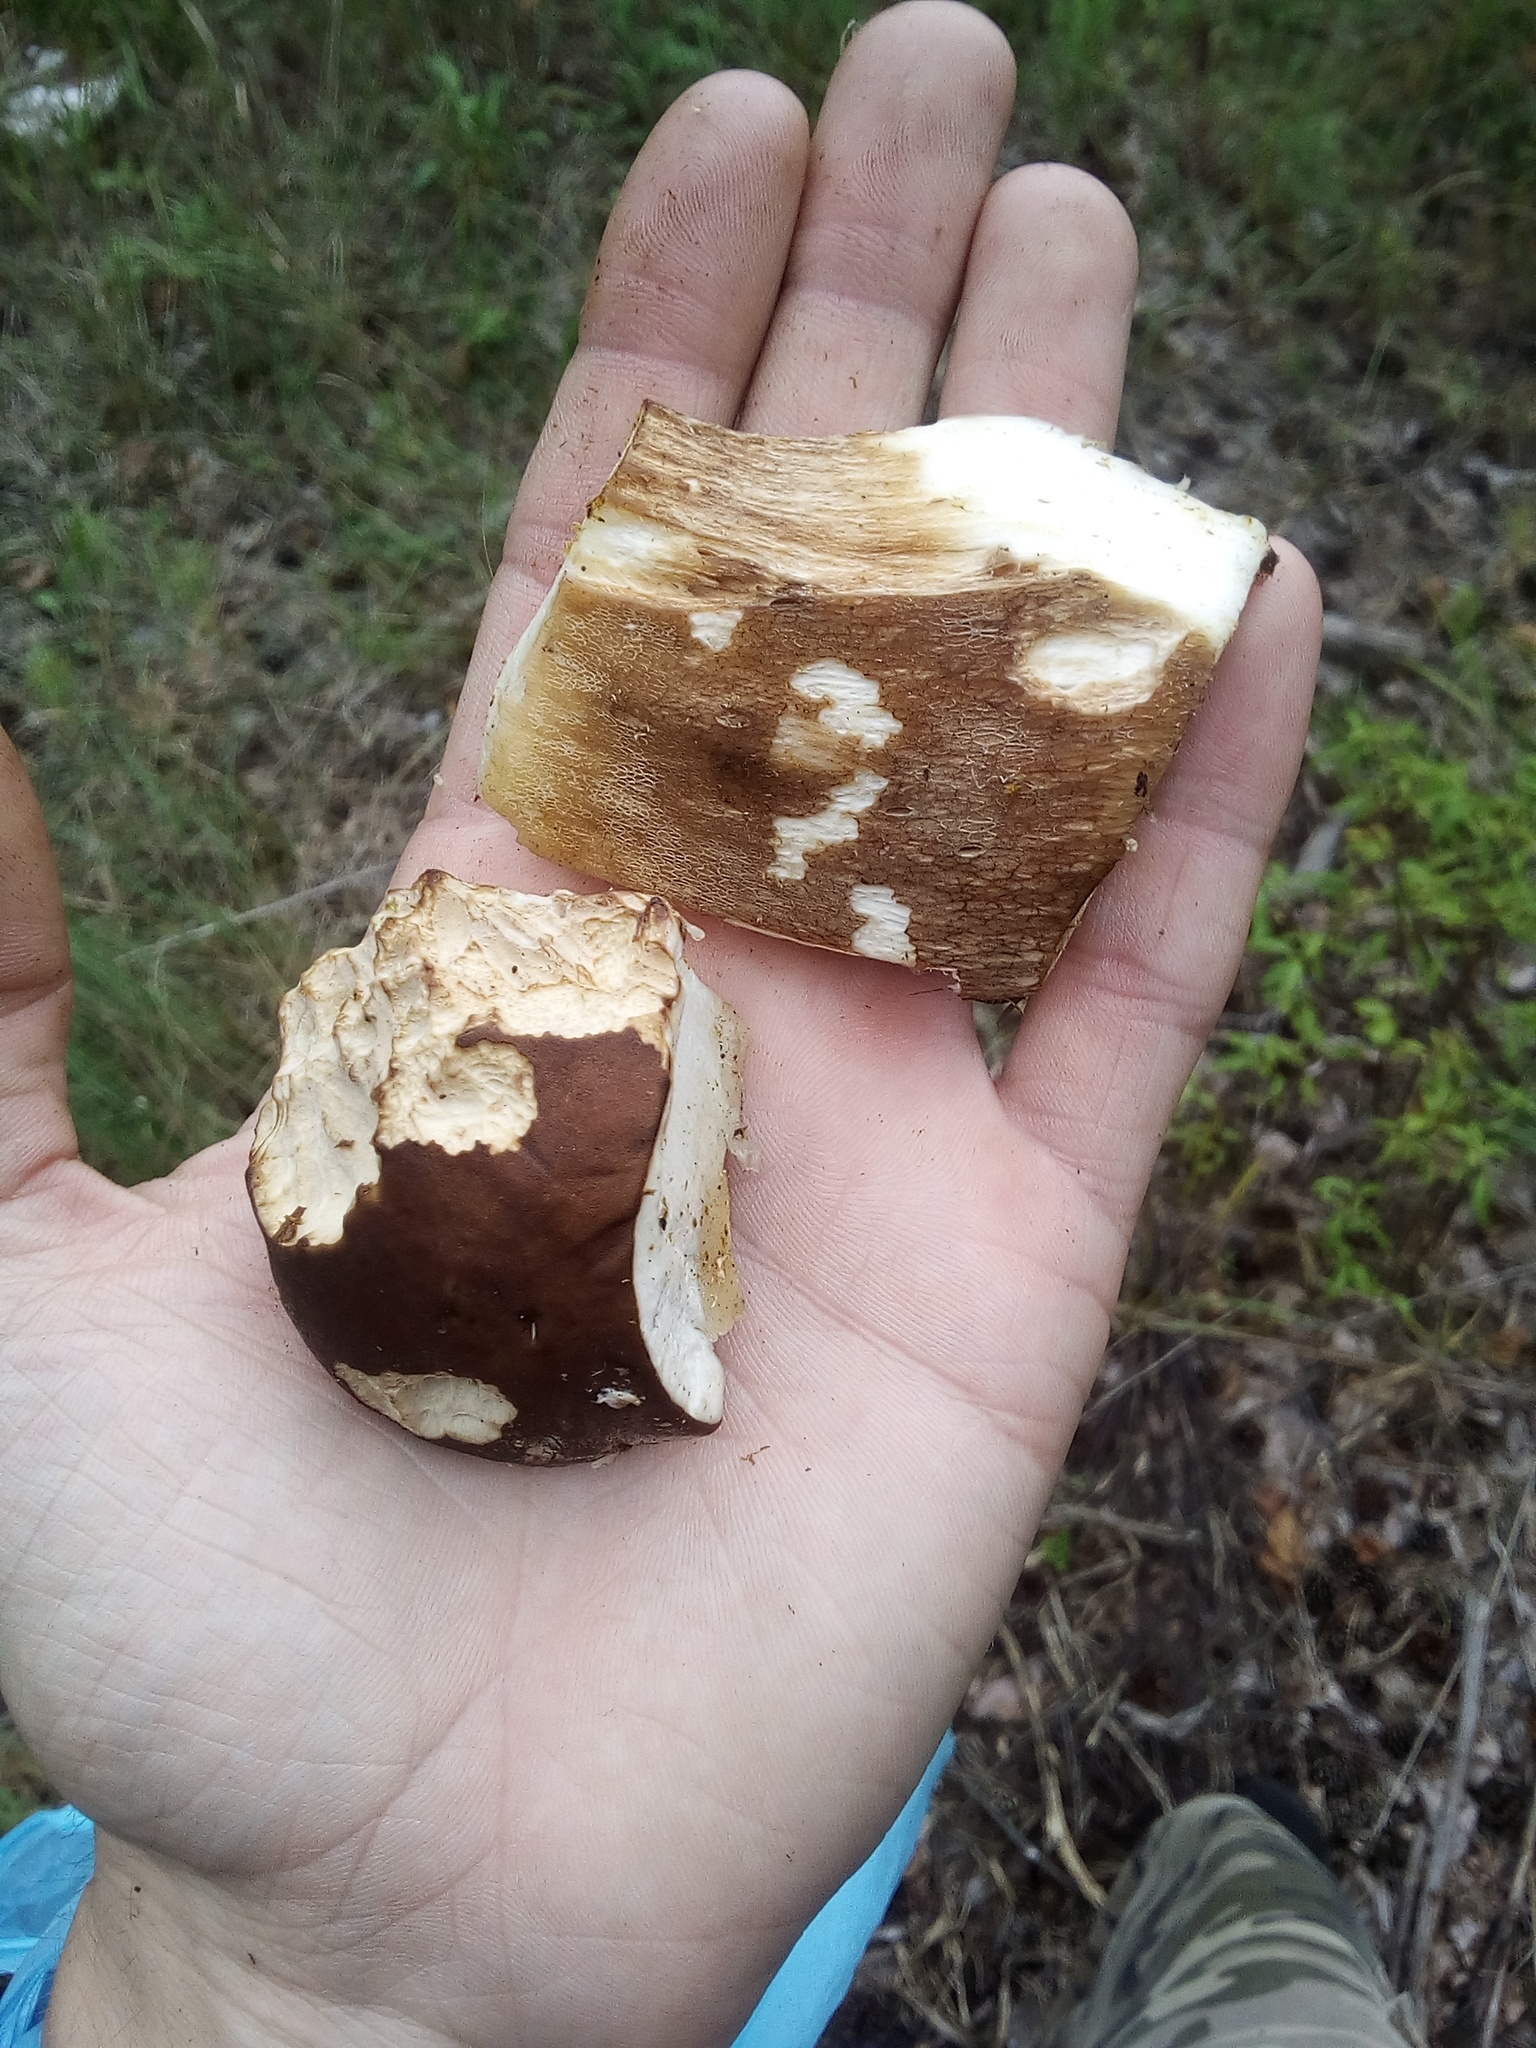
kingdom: Fungi
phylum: Basidiomycota
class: Agaricomycetes
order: Boletales
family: Boletaceae
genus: Boletus
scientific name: Boletus edulis
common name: Cep
